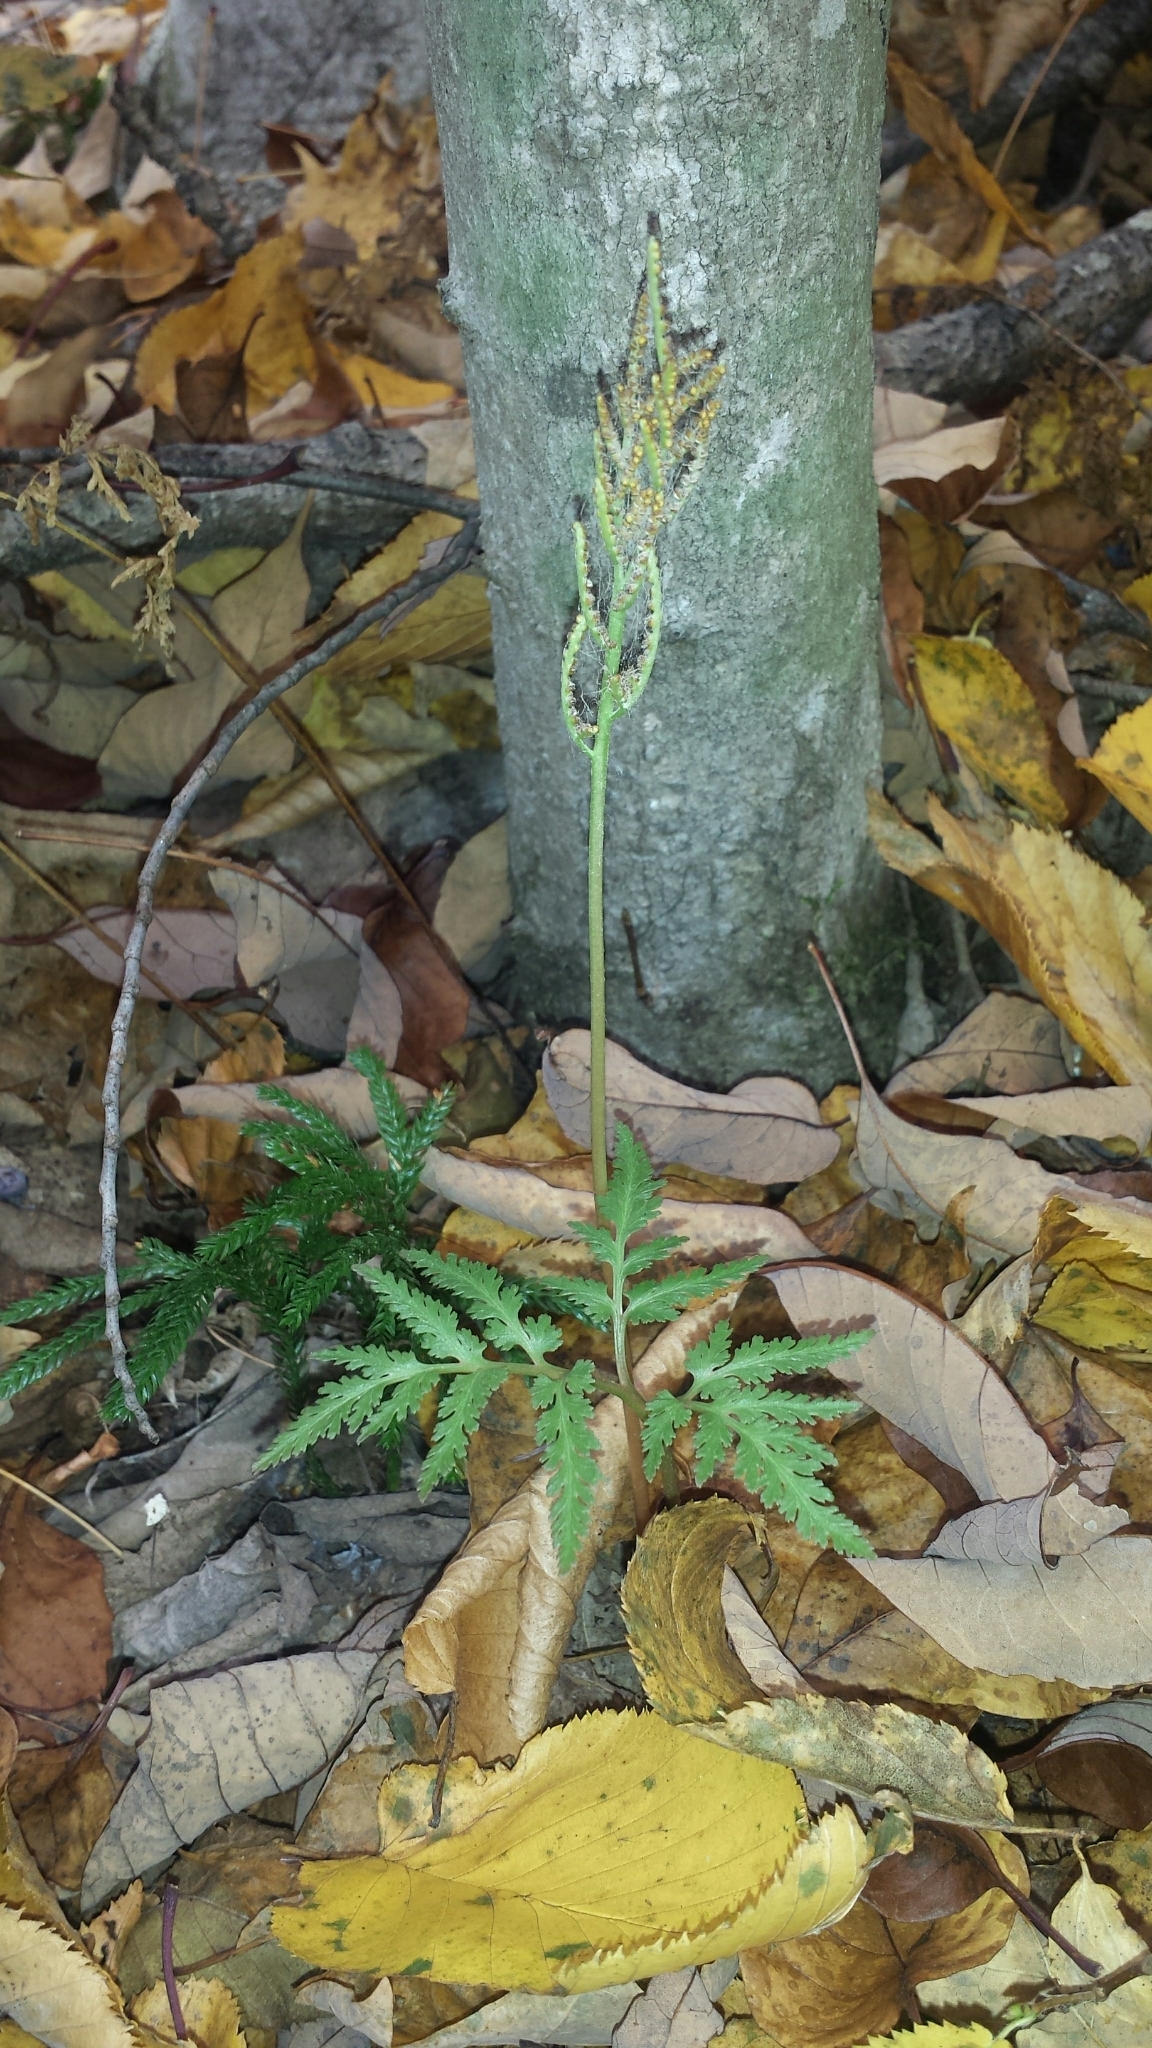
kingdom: Plantae
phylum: Tracheophyta
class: Polypodiopsida
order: Ophioglossales
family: Ophioglossaceae
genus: Sceptridium
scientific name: Sceptridium dissectum
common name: Cut-leaved grapefern
